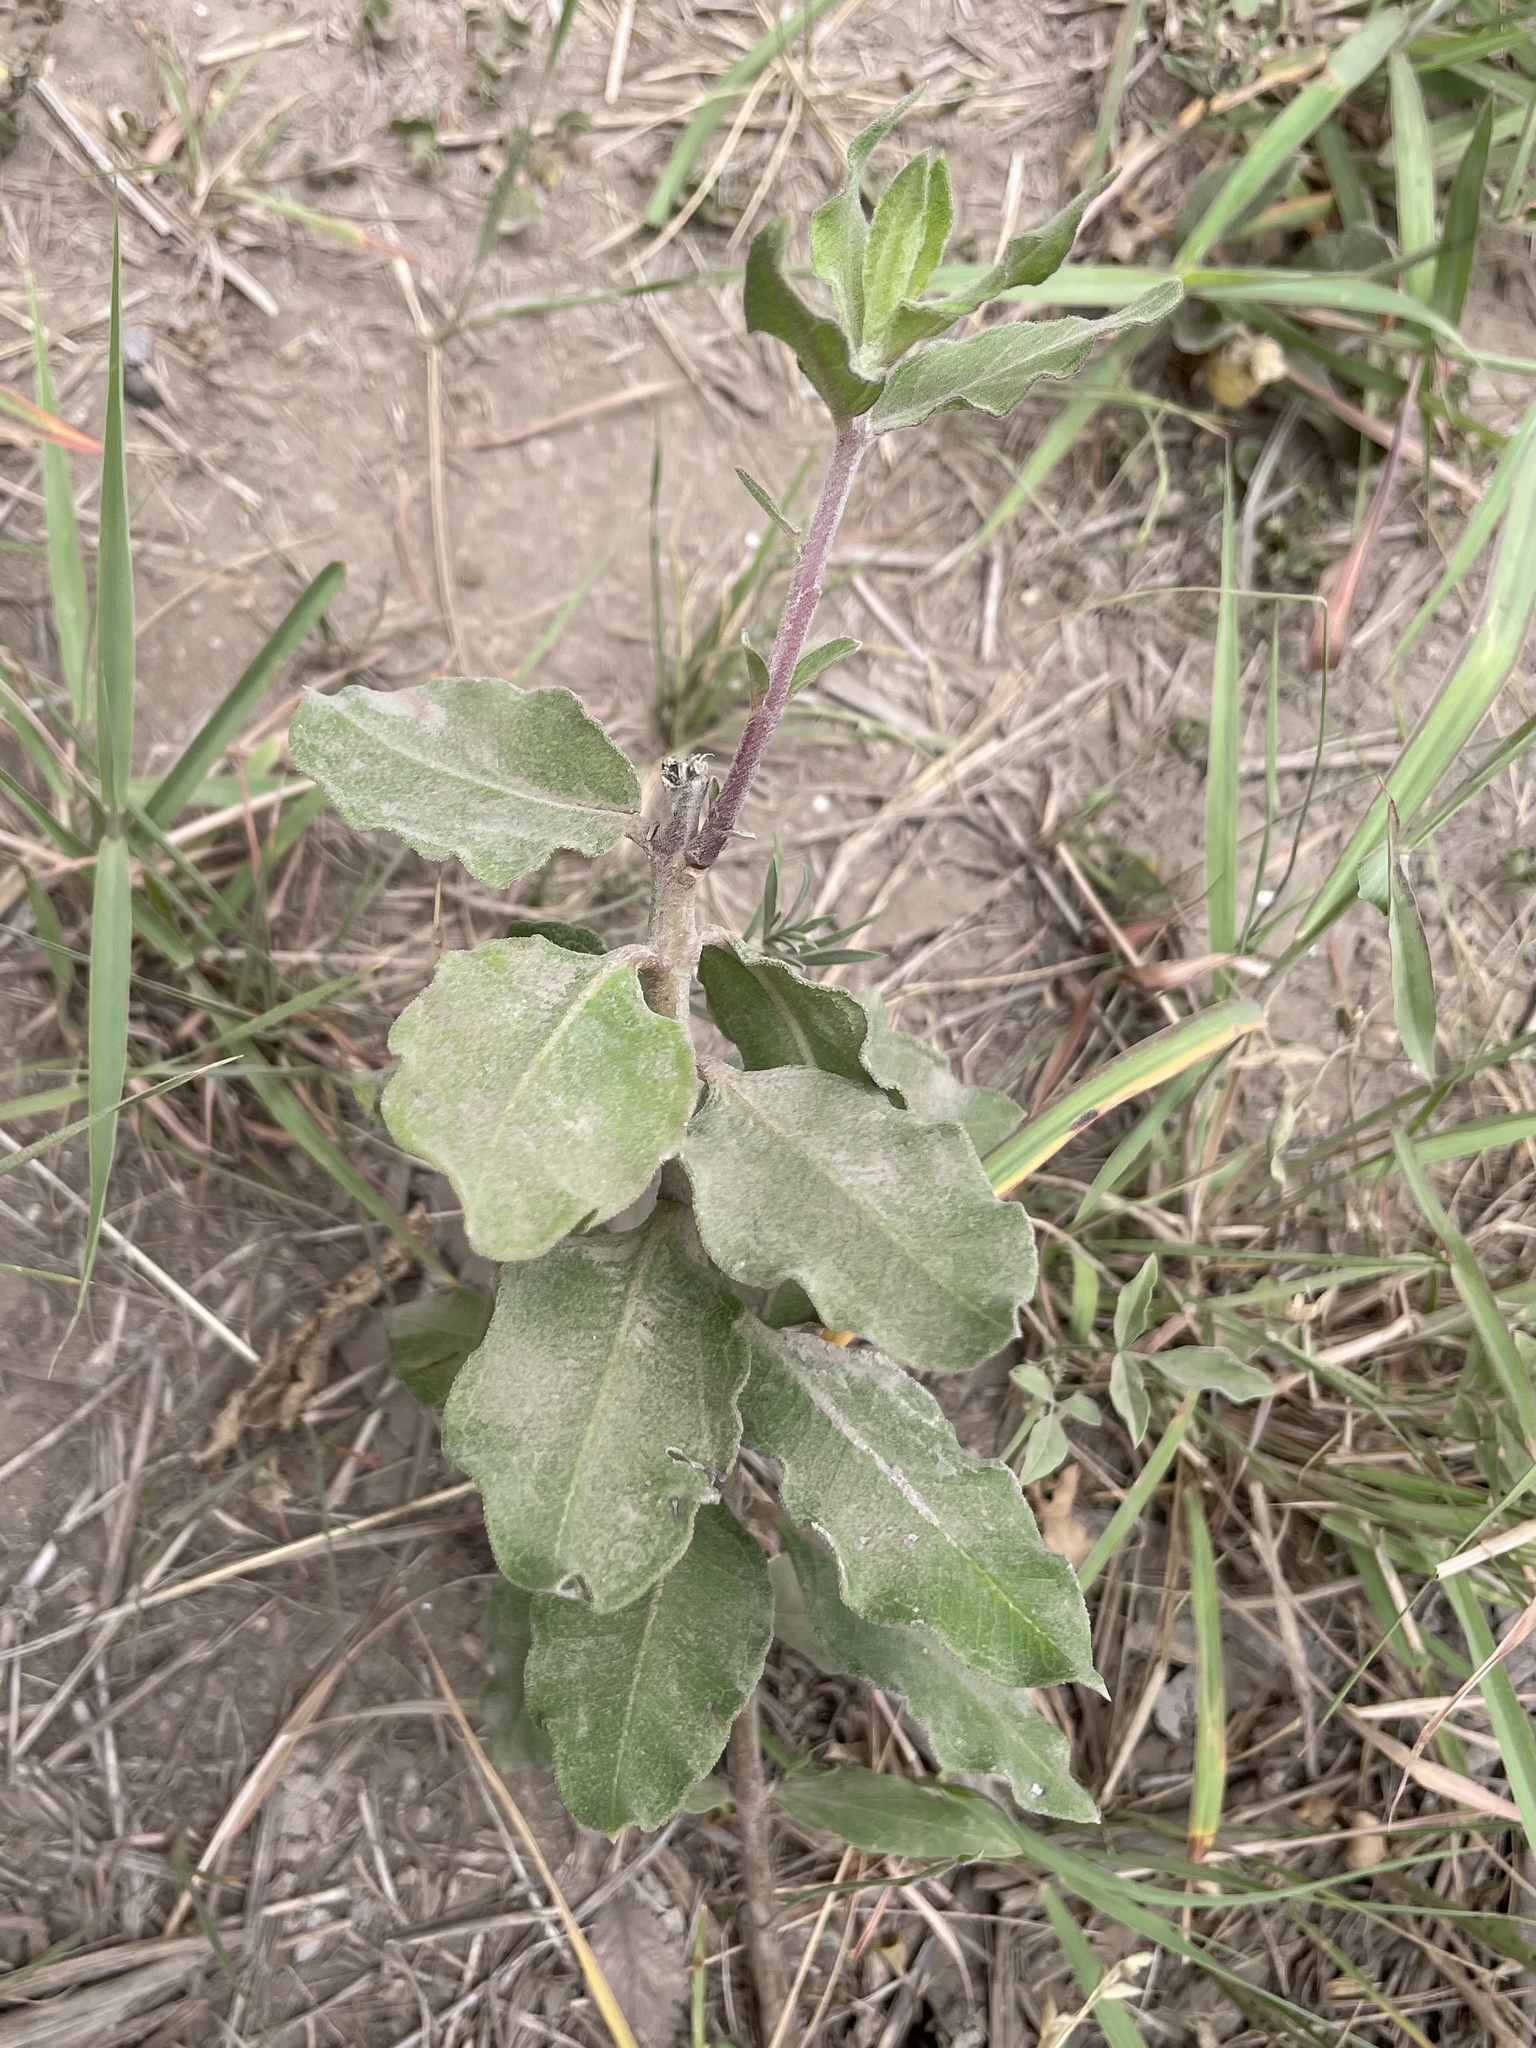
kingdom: Plantae
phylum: Tracheophyta
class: Magnoliopsida
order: Gentianales
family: Apocynaceae
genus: Asclepias
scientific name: Asclepias viridiflora
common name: Green comet milkweed
